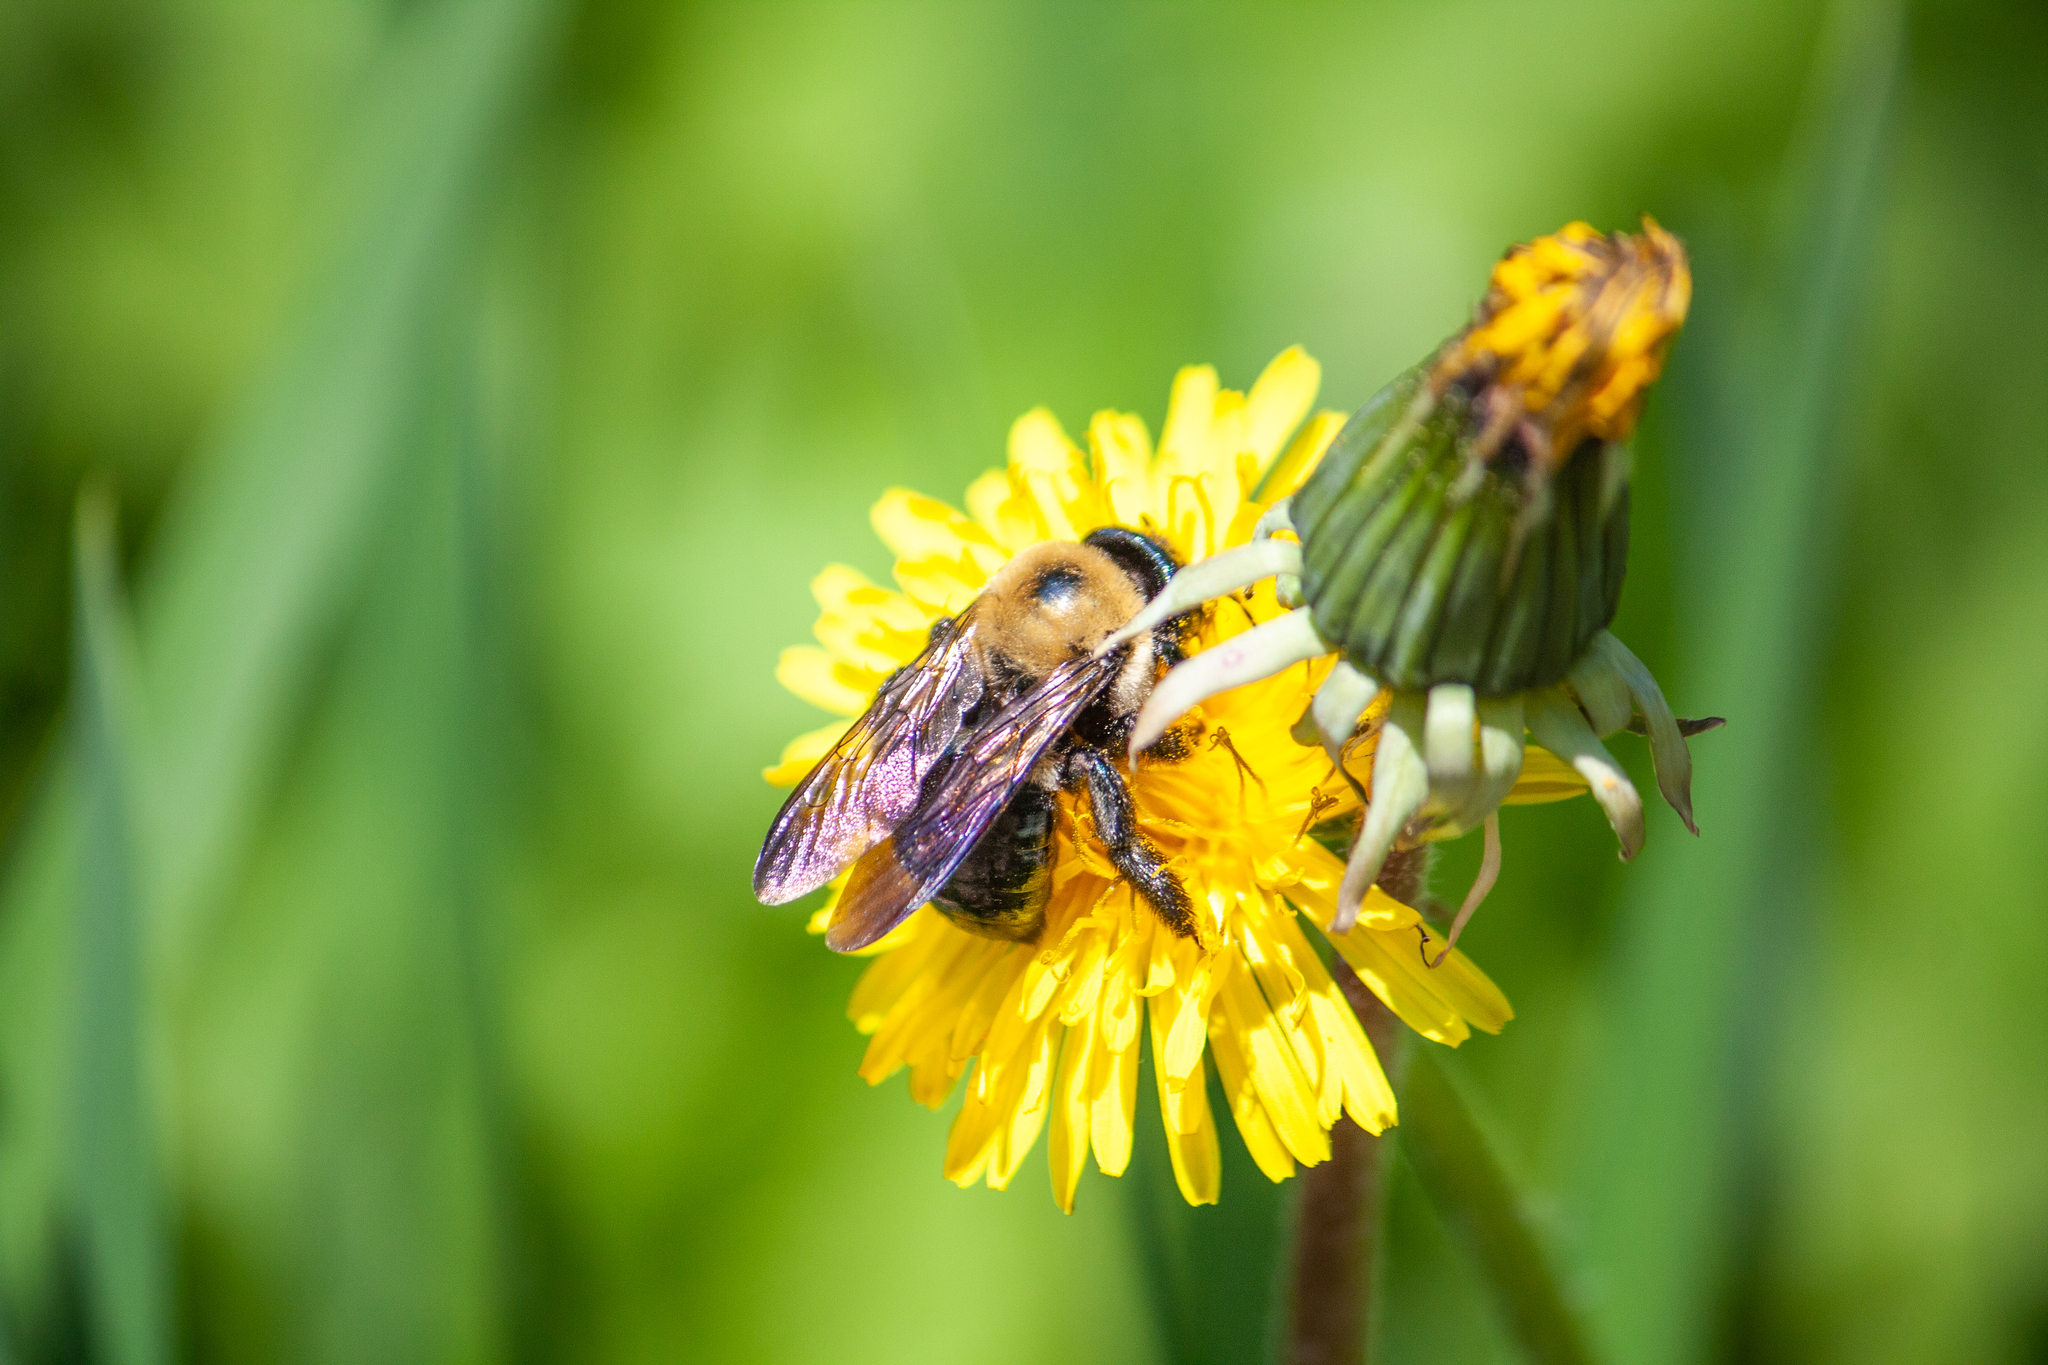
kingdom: Animalia
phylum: Arthropoda
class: Insecta
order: Hymenoptera
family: Apidae
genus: Xylocopa
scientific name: Xylocopa virginica
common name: Carpenter bee
